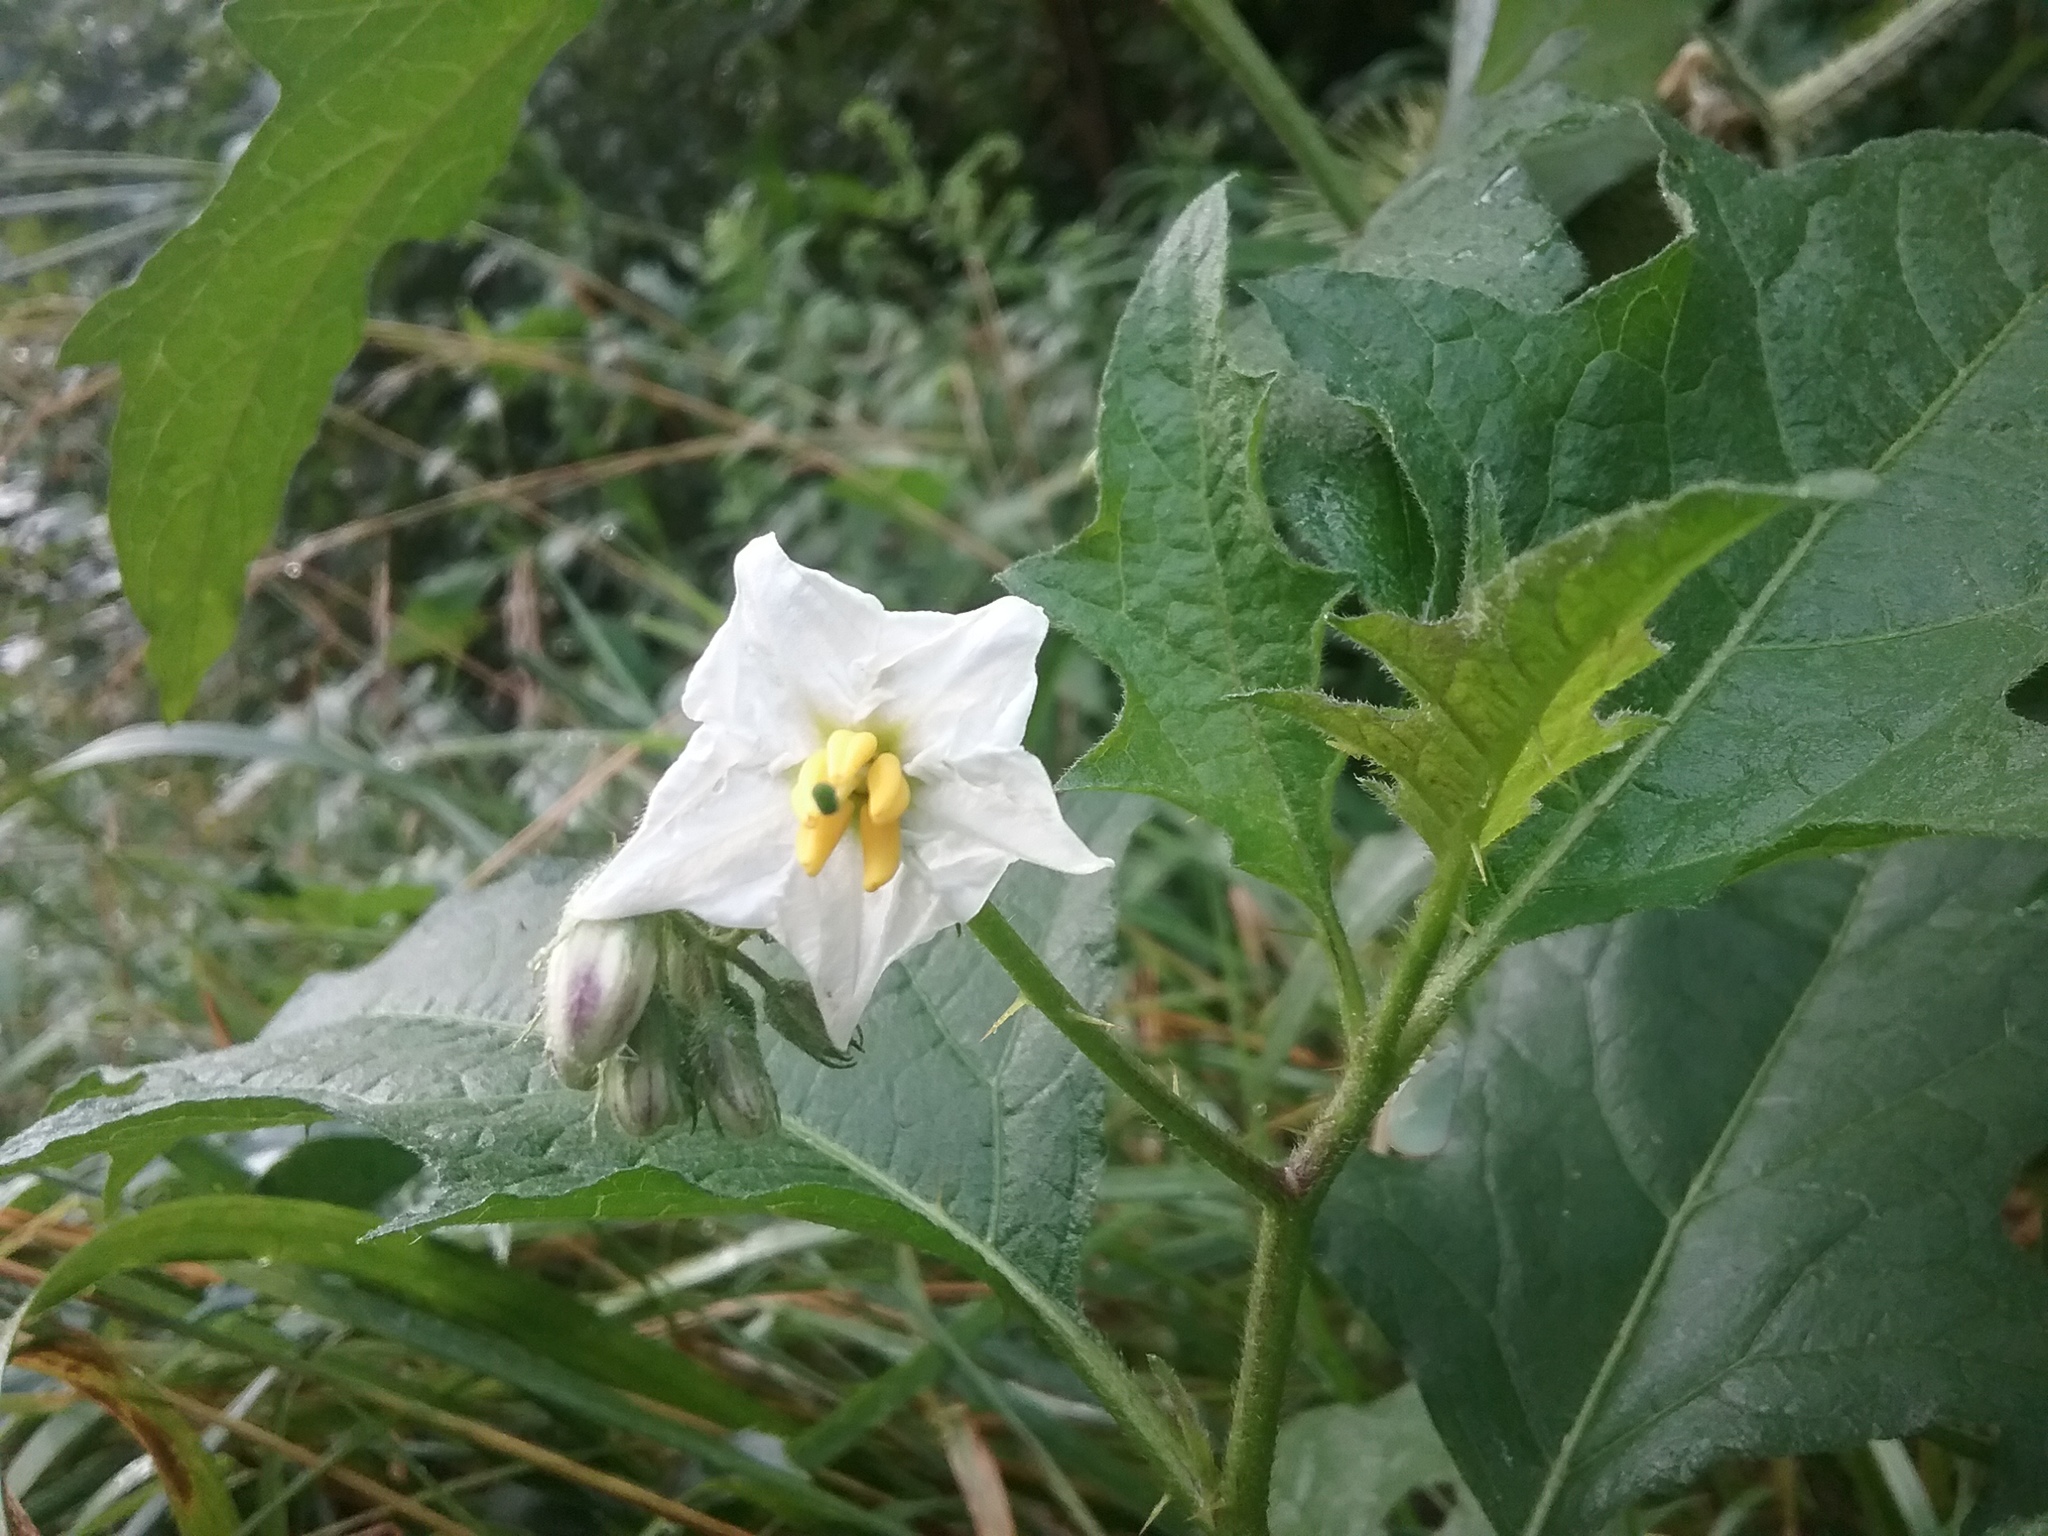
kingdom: Plantae
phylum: Tracheophyta
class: Magnoliopsida
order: Solanales
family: Solanaceae
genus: Solanum
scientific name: Solanum carolinense
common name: Horse-nettle
